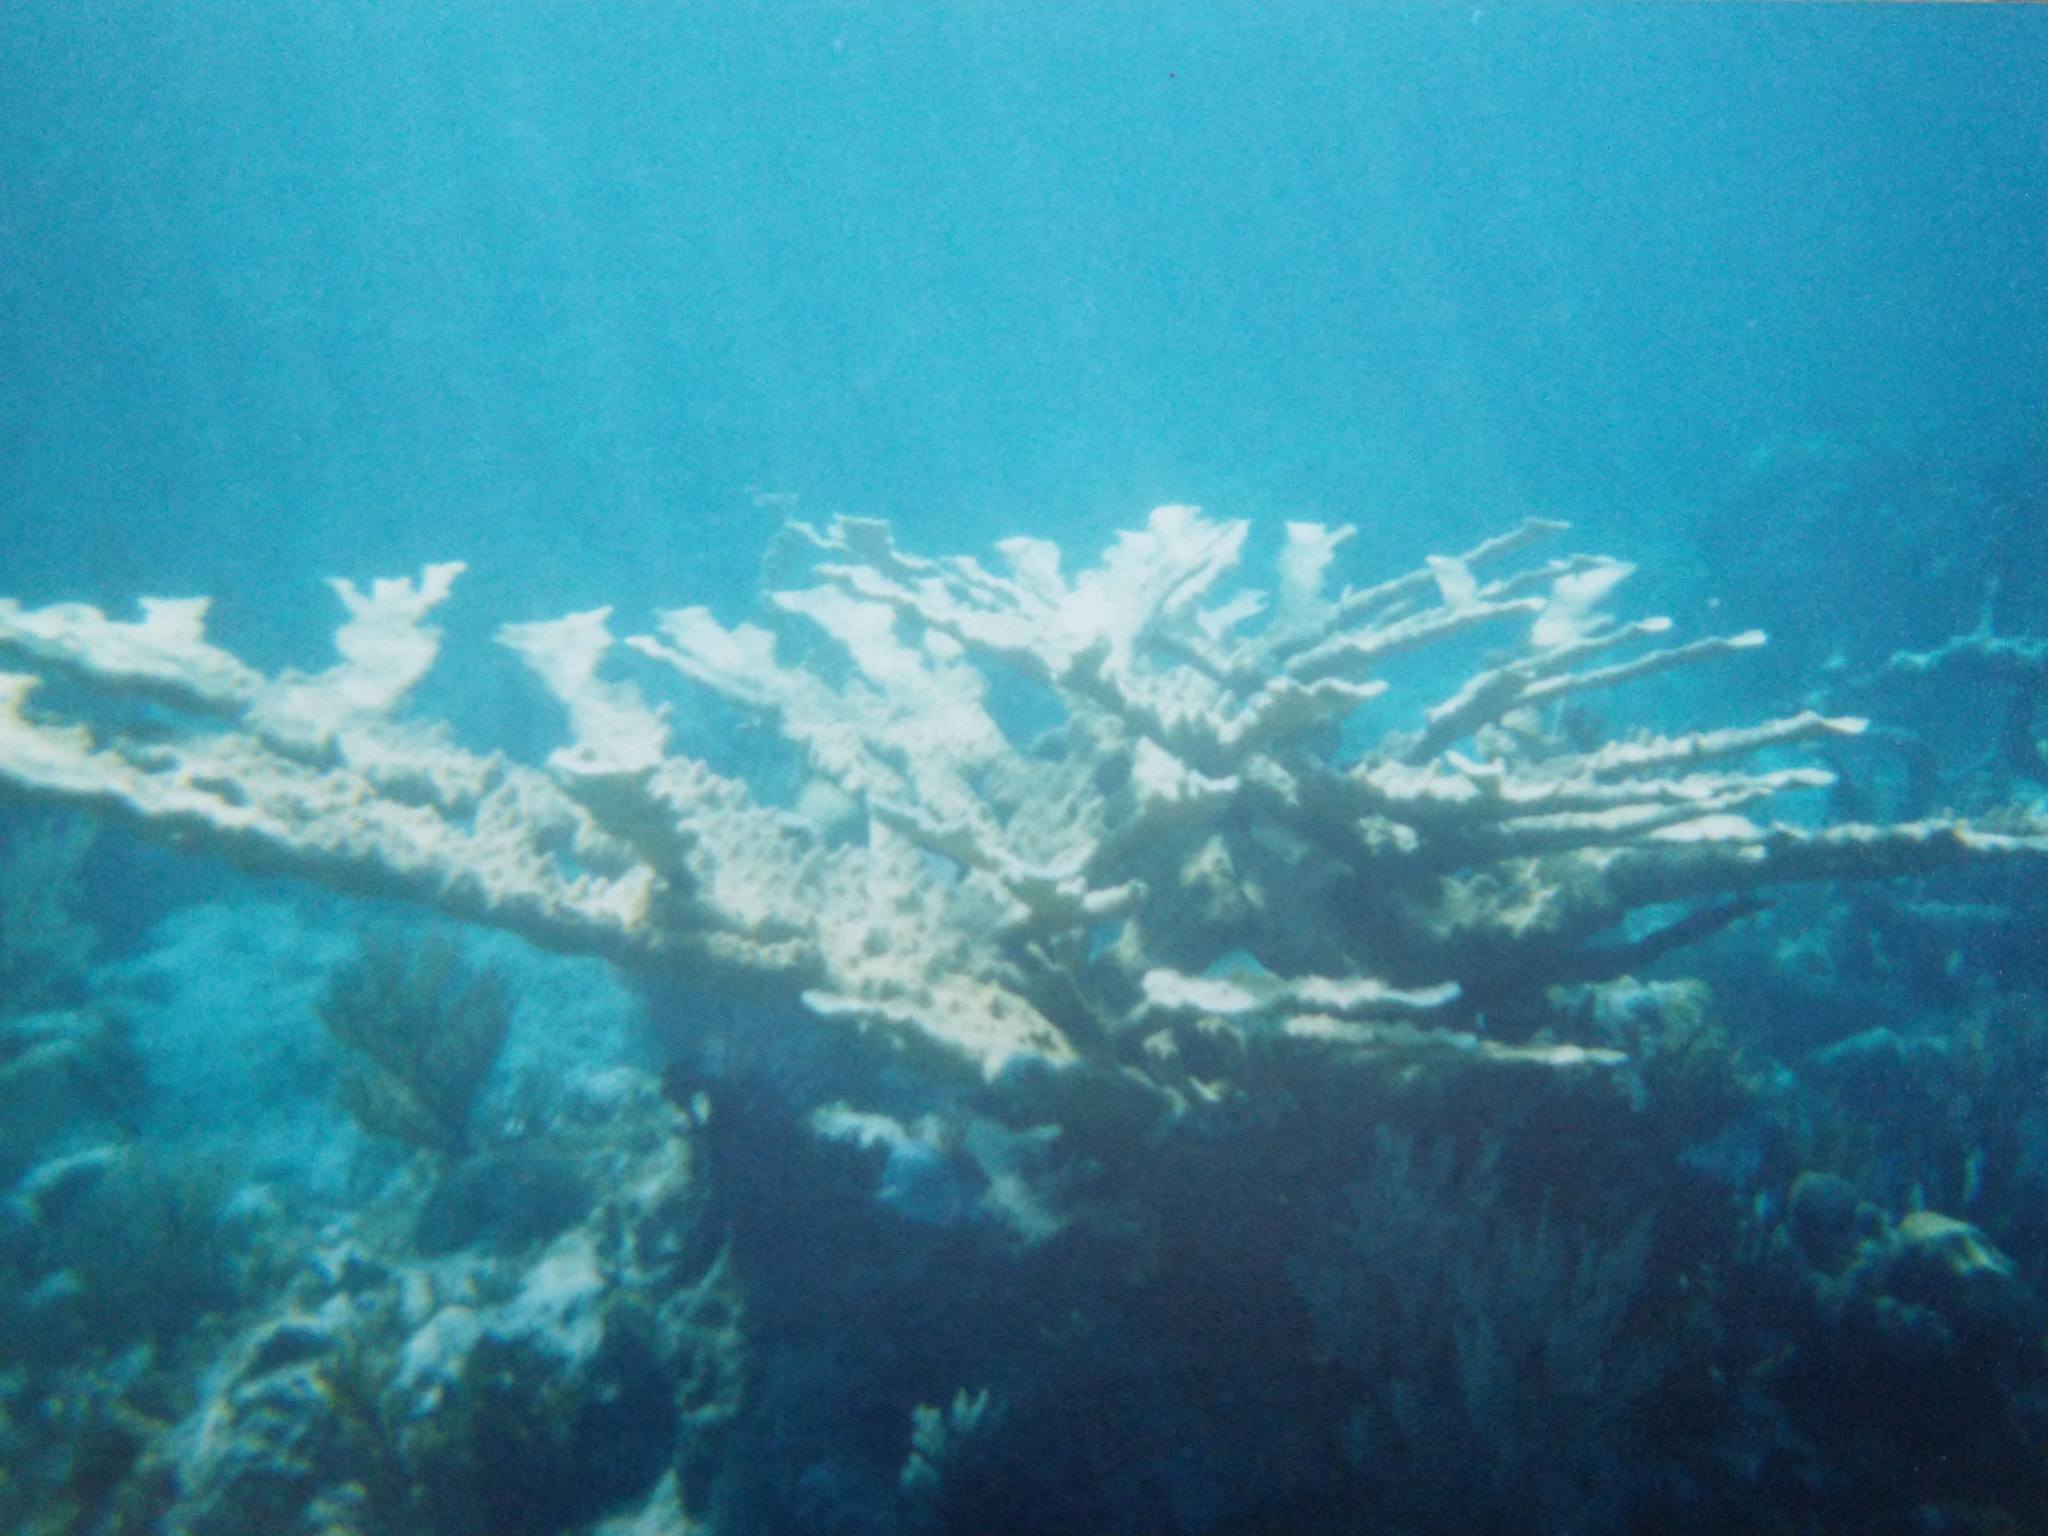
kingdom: Animalia
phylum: Cnidaria
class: Anthozoa
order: Scleractinia
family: Acroporidae
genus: Acropora
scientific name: Acropora palmata
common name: Elkhorn coral
